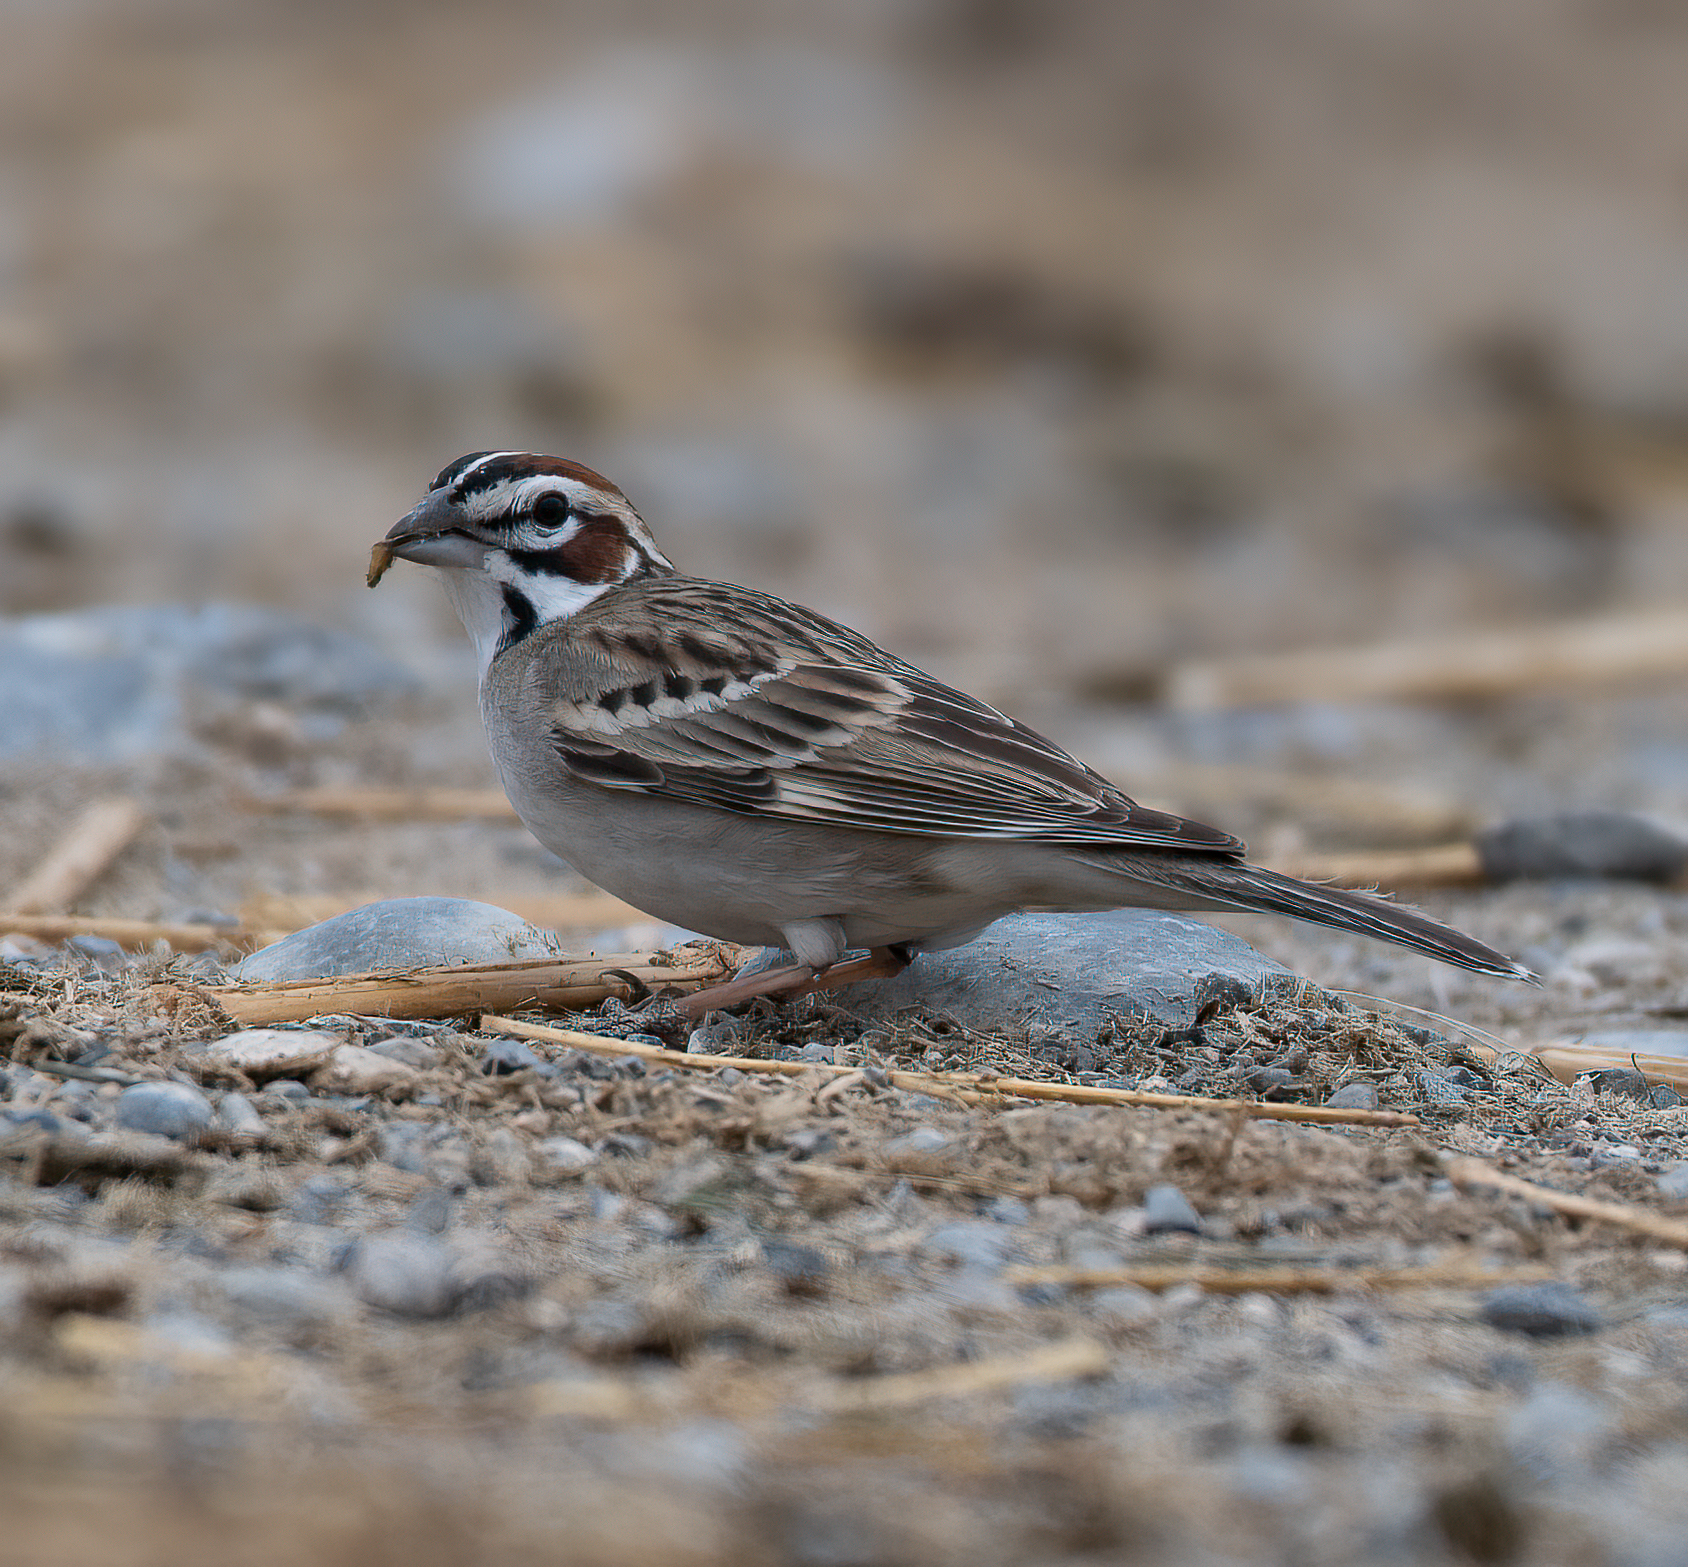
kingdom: Animalia
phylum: Chordata
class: Aves
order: Passeriformes
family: Passerellidae
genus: Chondestes
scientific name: Chondestes grammacus
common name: Lark sparrow
